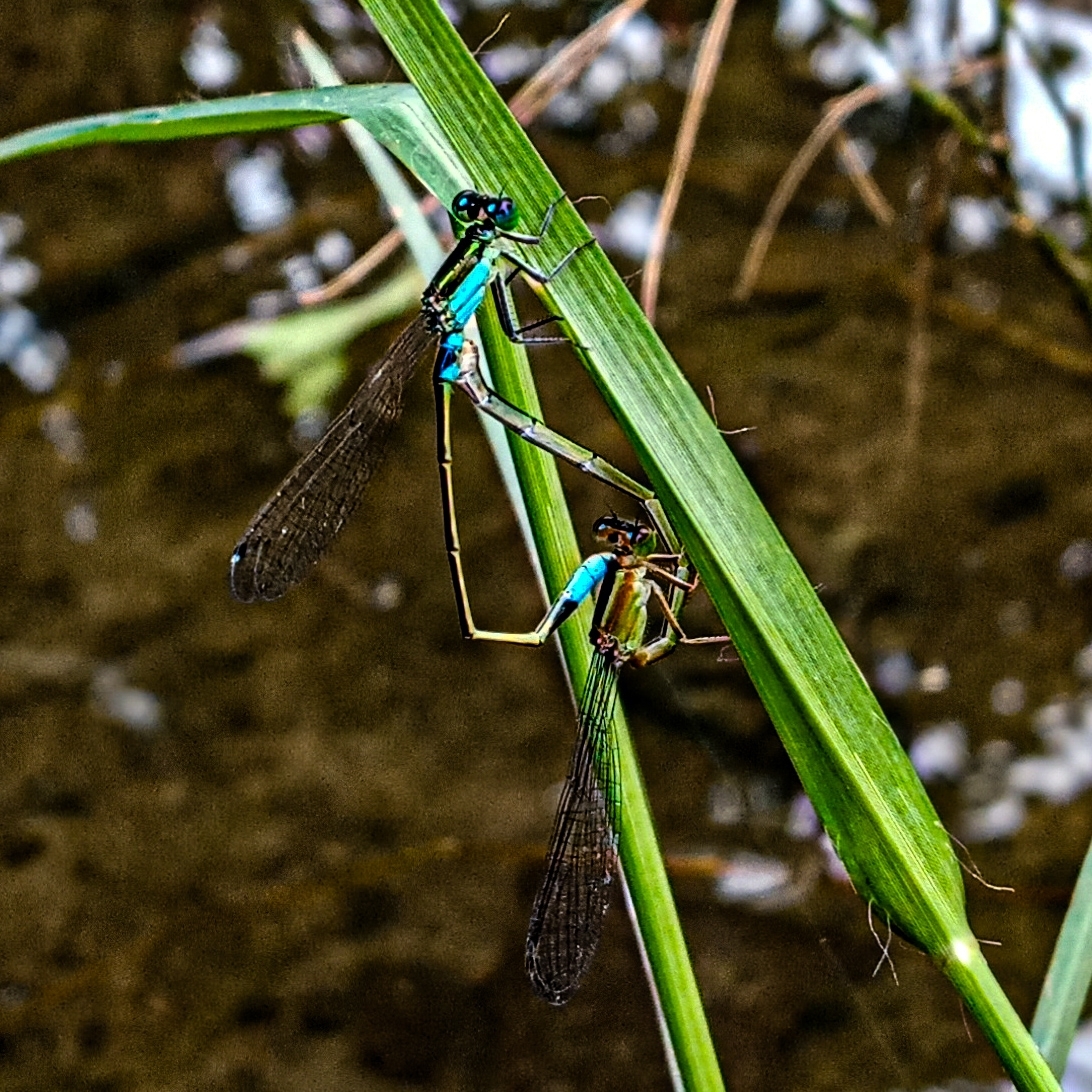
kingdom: Animalia
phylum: Arthropoda
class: Insecta
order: Odonata
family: Coenagrionidae
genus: Ischnura
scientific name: Ischnura senegalensis
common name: Tropical bluetail
